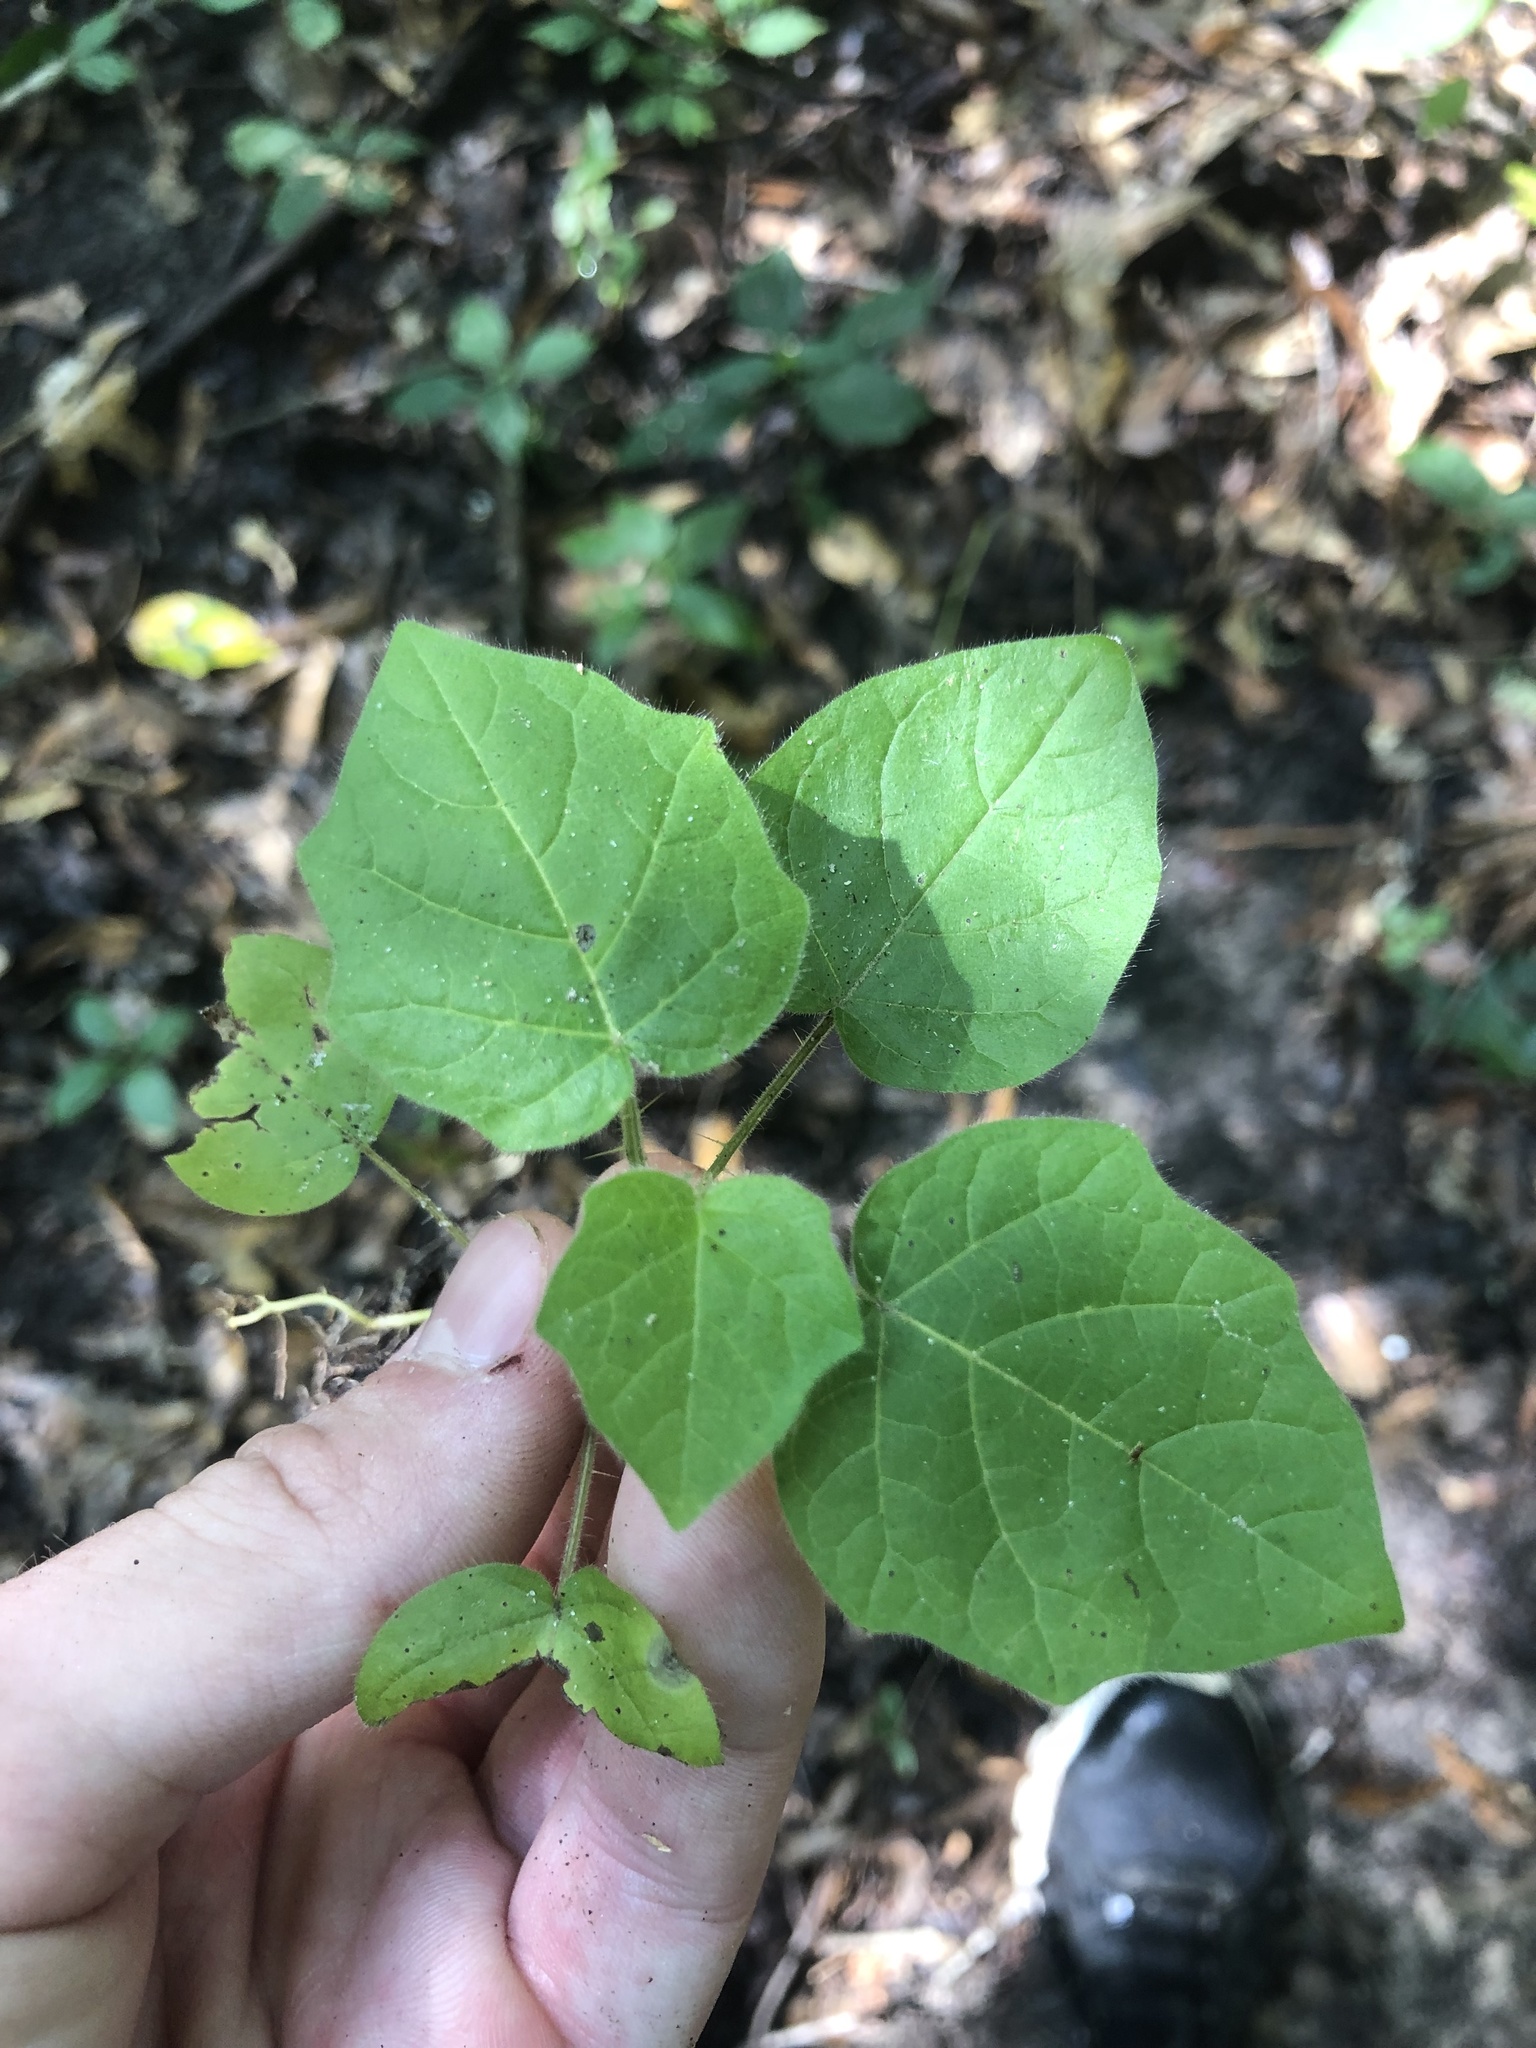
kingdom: Plantae
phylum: Tracheophyta
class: Magnoliopsida
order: Solanales
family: Solanaceae
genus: Solanum
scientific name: Solanum viarum
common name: Tropical soda apple
